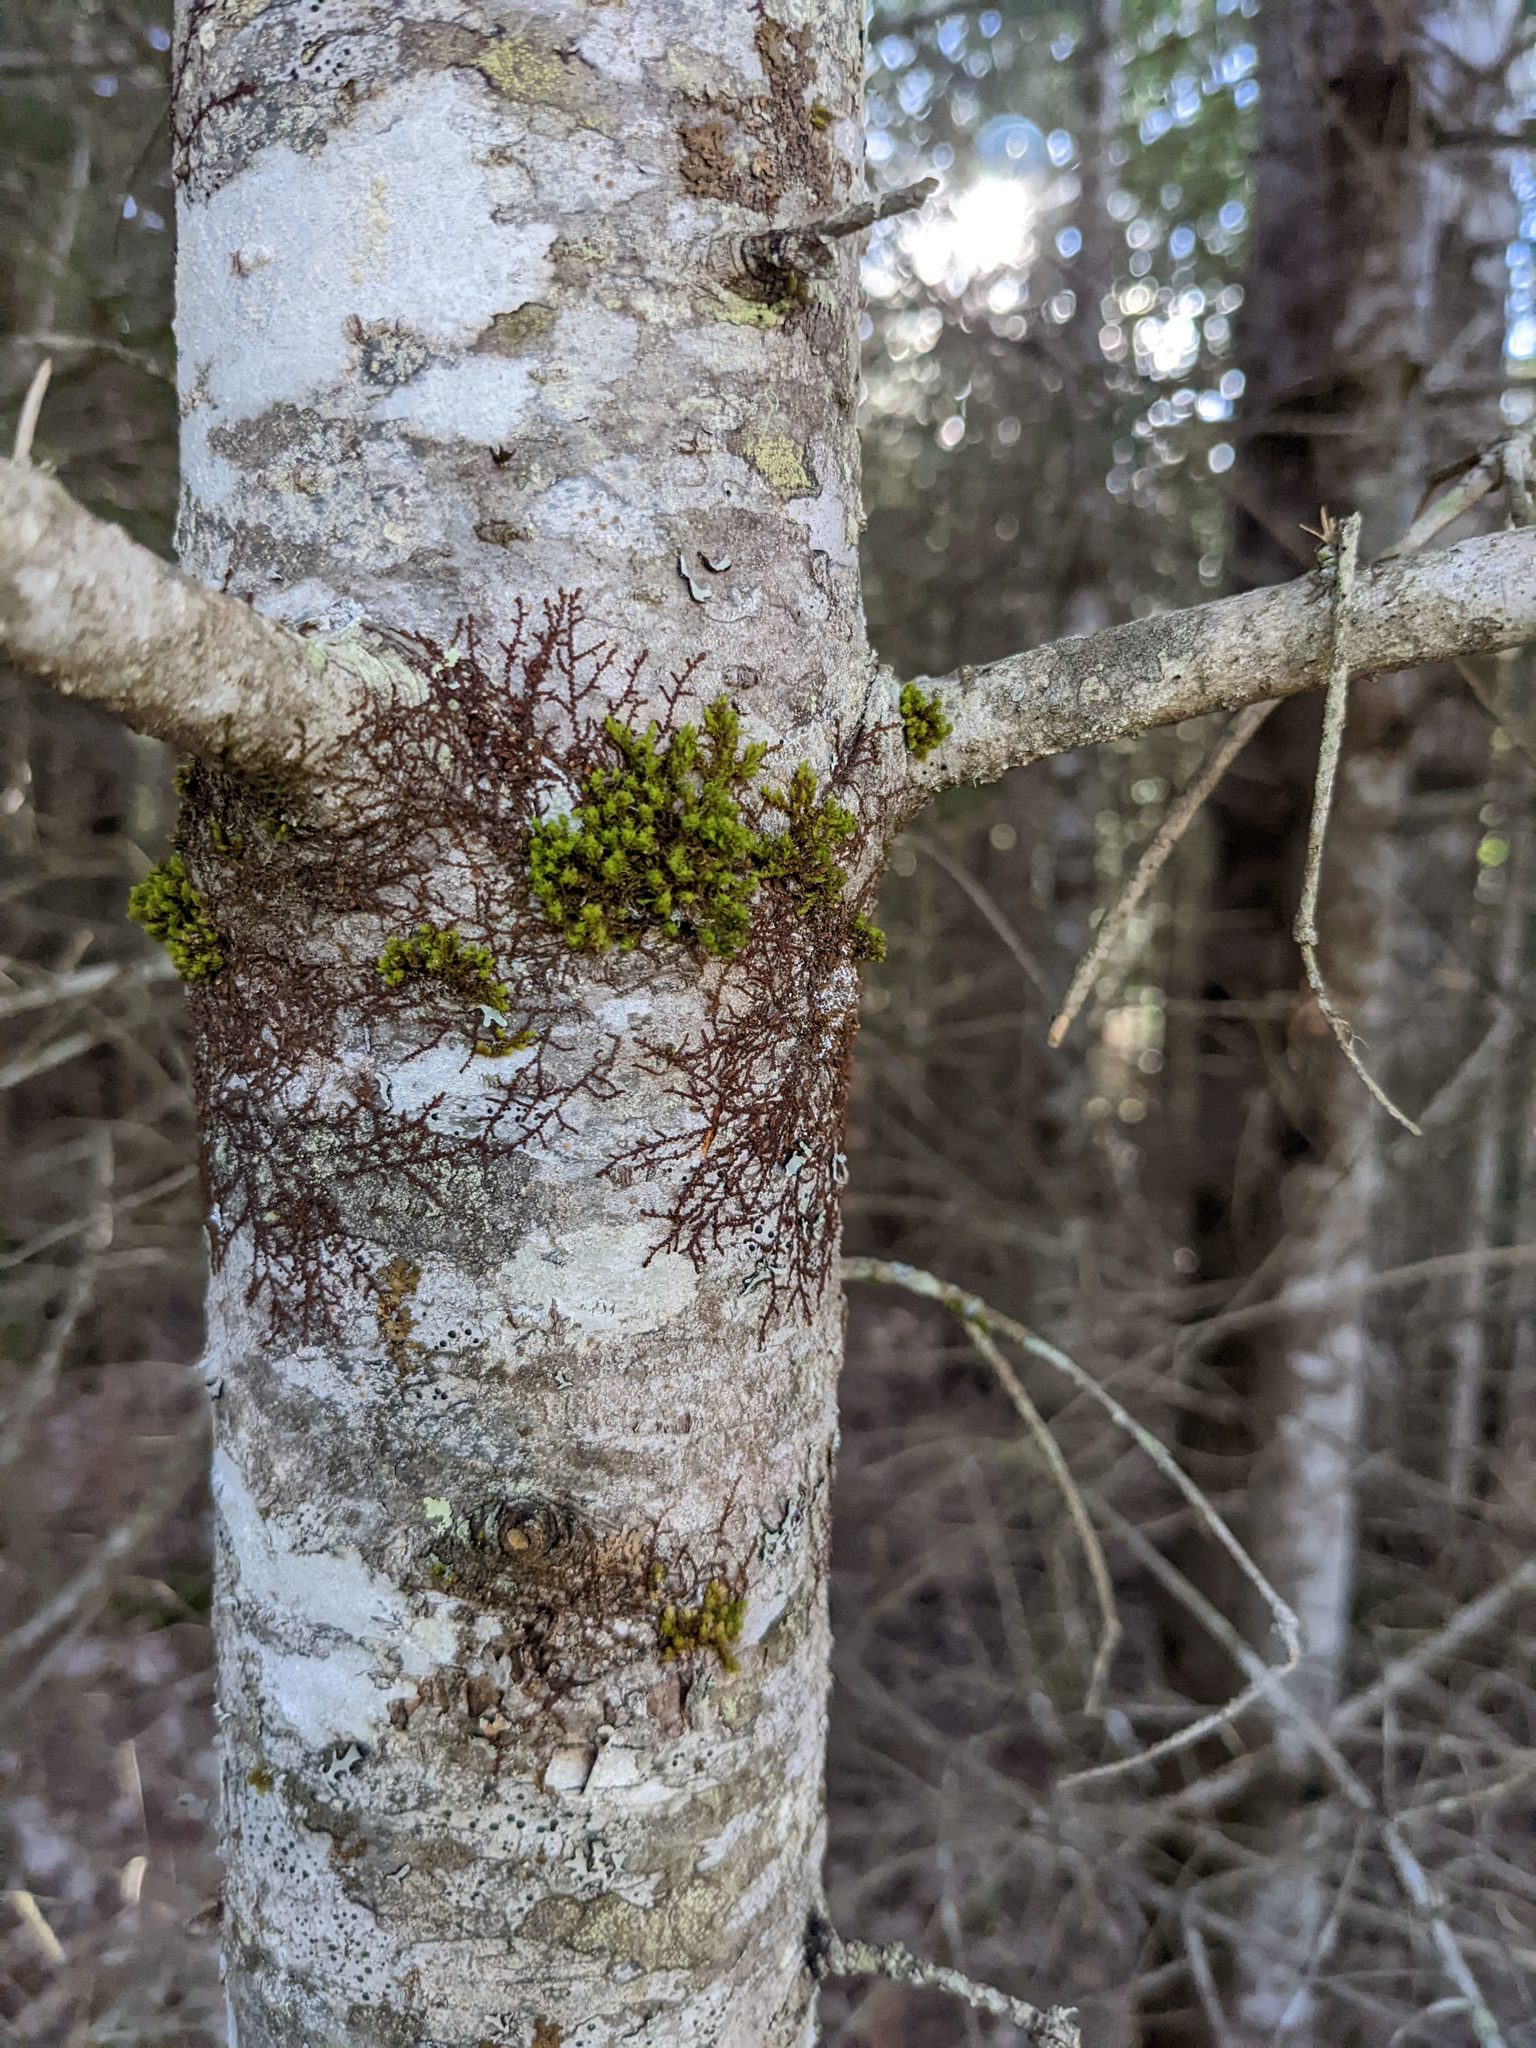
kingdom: Plantae
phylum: Marchantiophyta
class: Jungermanniopsida
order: Porellales
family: Frullaniaceae
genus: Frullania
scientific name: Frullania eboracensis
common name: New york scalewort
